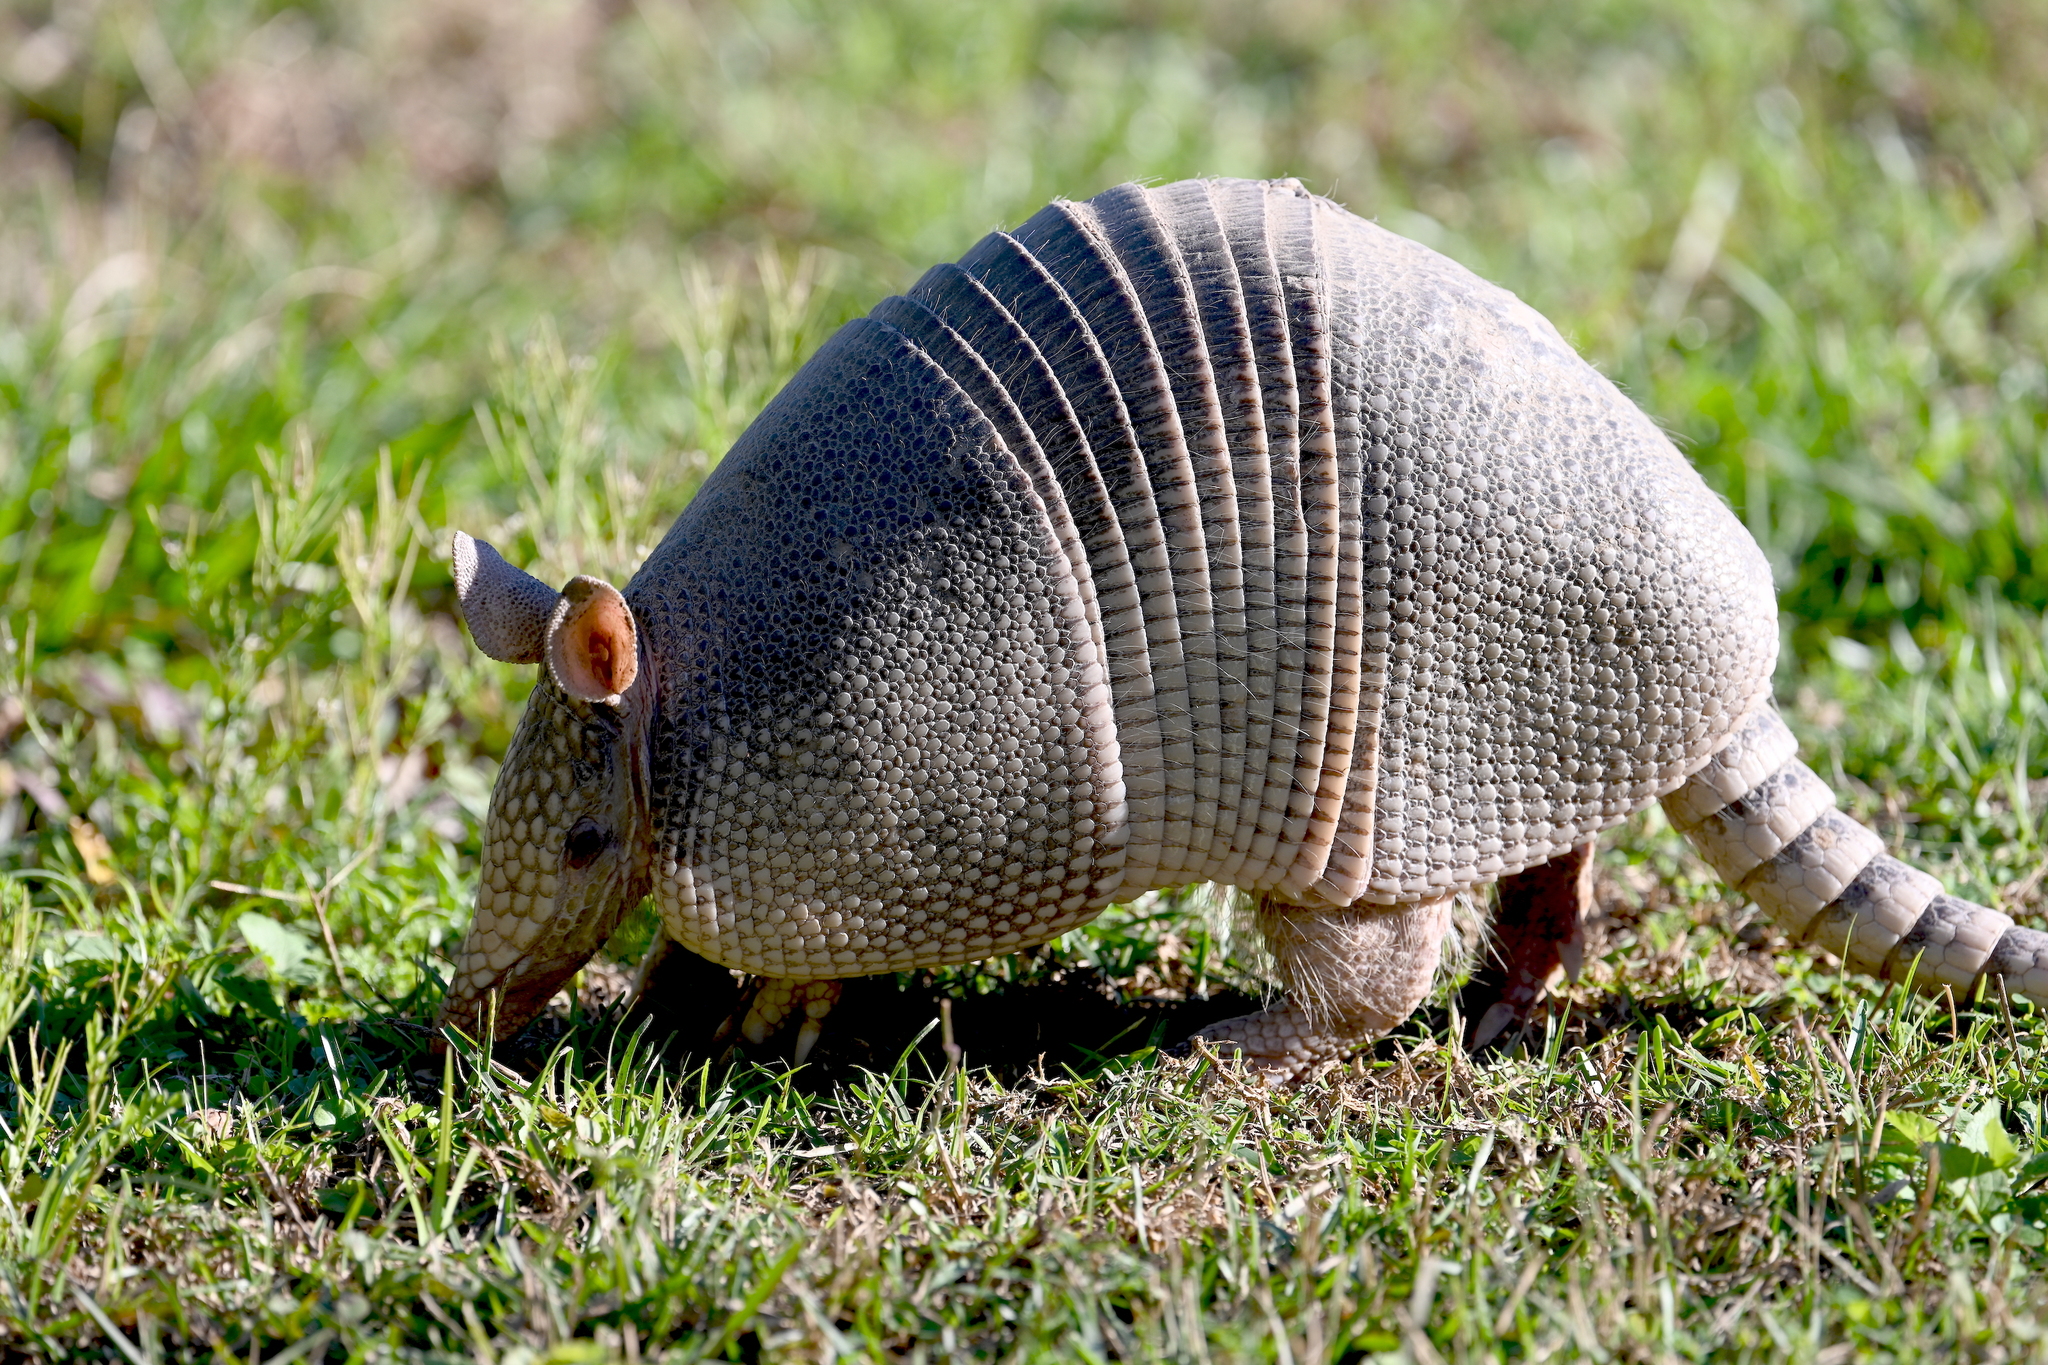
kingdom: Animalia
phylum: Chordata
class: Mammalia
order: Cingulata
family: Dasypodidae
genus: Dasypus
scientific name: Dasypus novemcinctus
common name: Nine-banded armadillo
